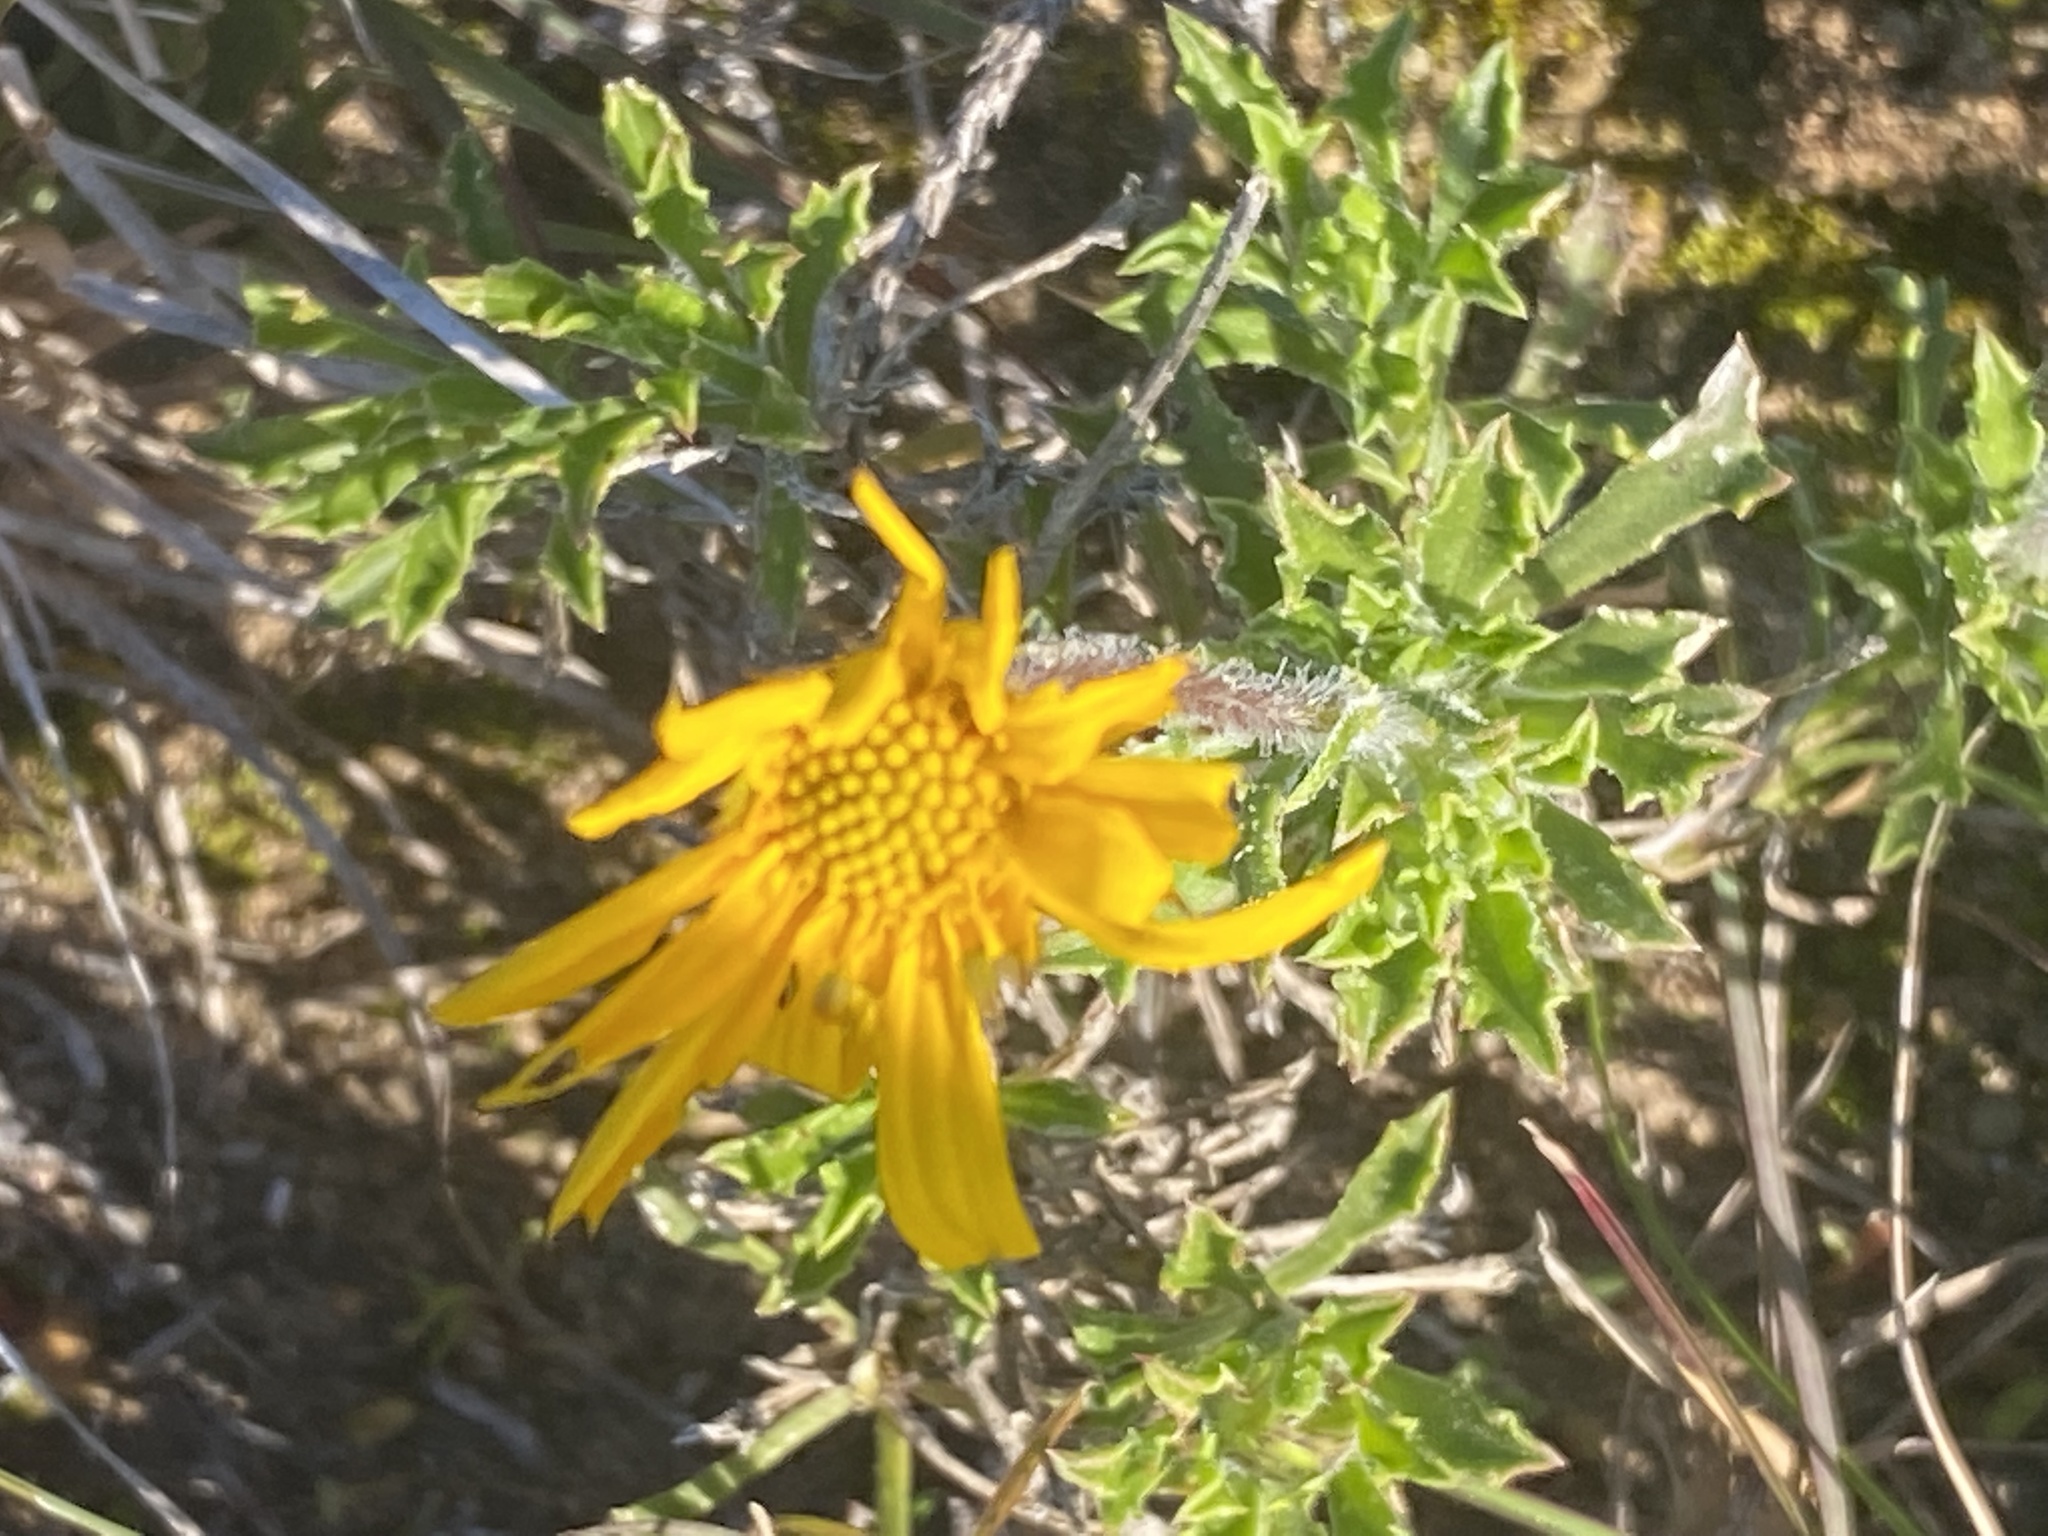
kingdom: Plantae
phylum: Tracheophyta
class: Magnoliopsida
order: Asterales
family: Asteraceae
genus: Osteospermum
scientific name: Osteospermum scariosum
